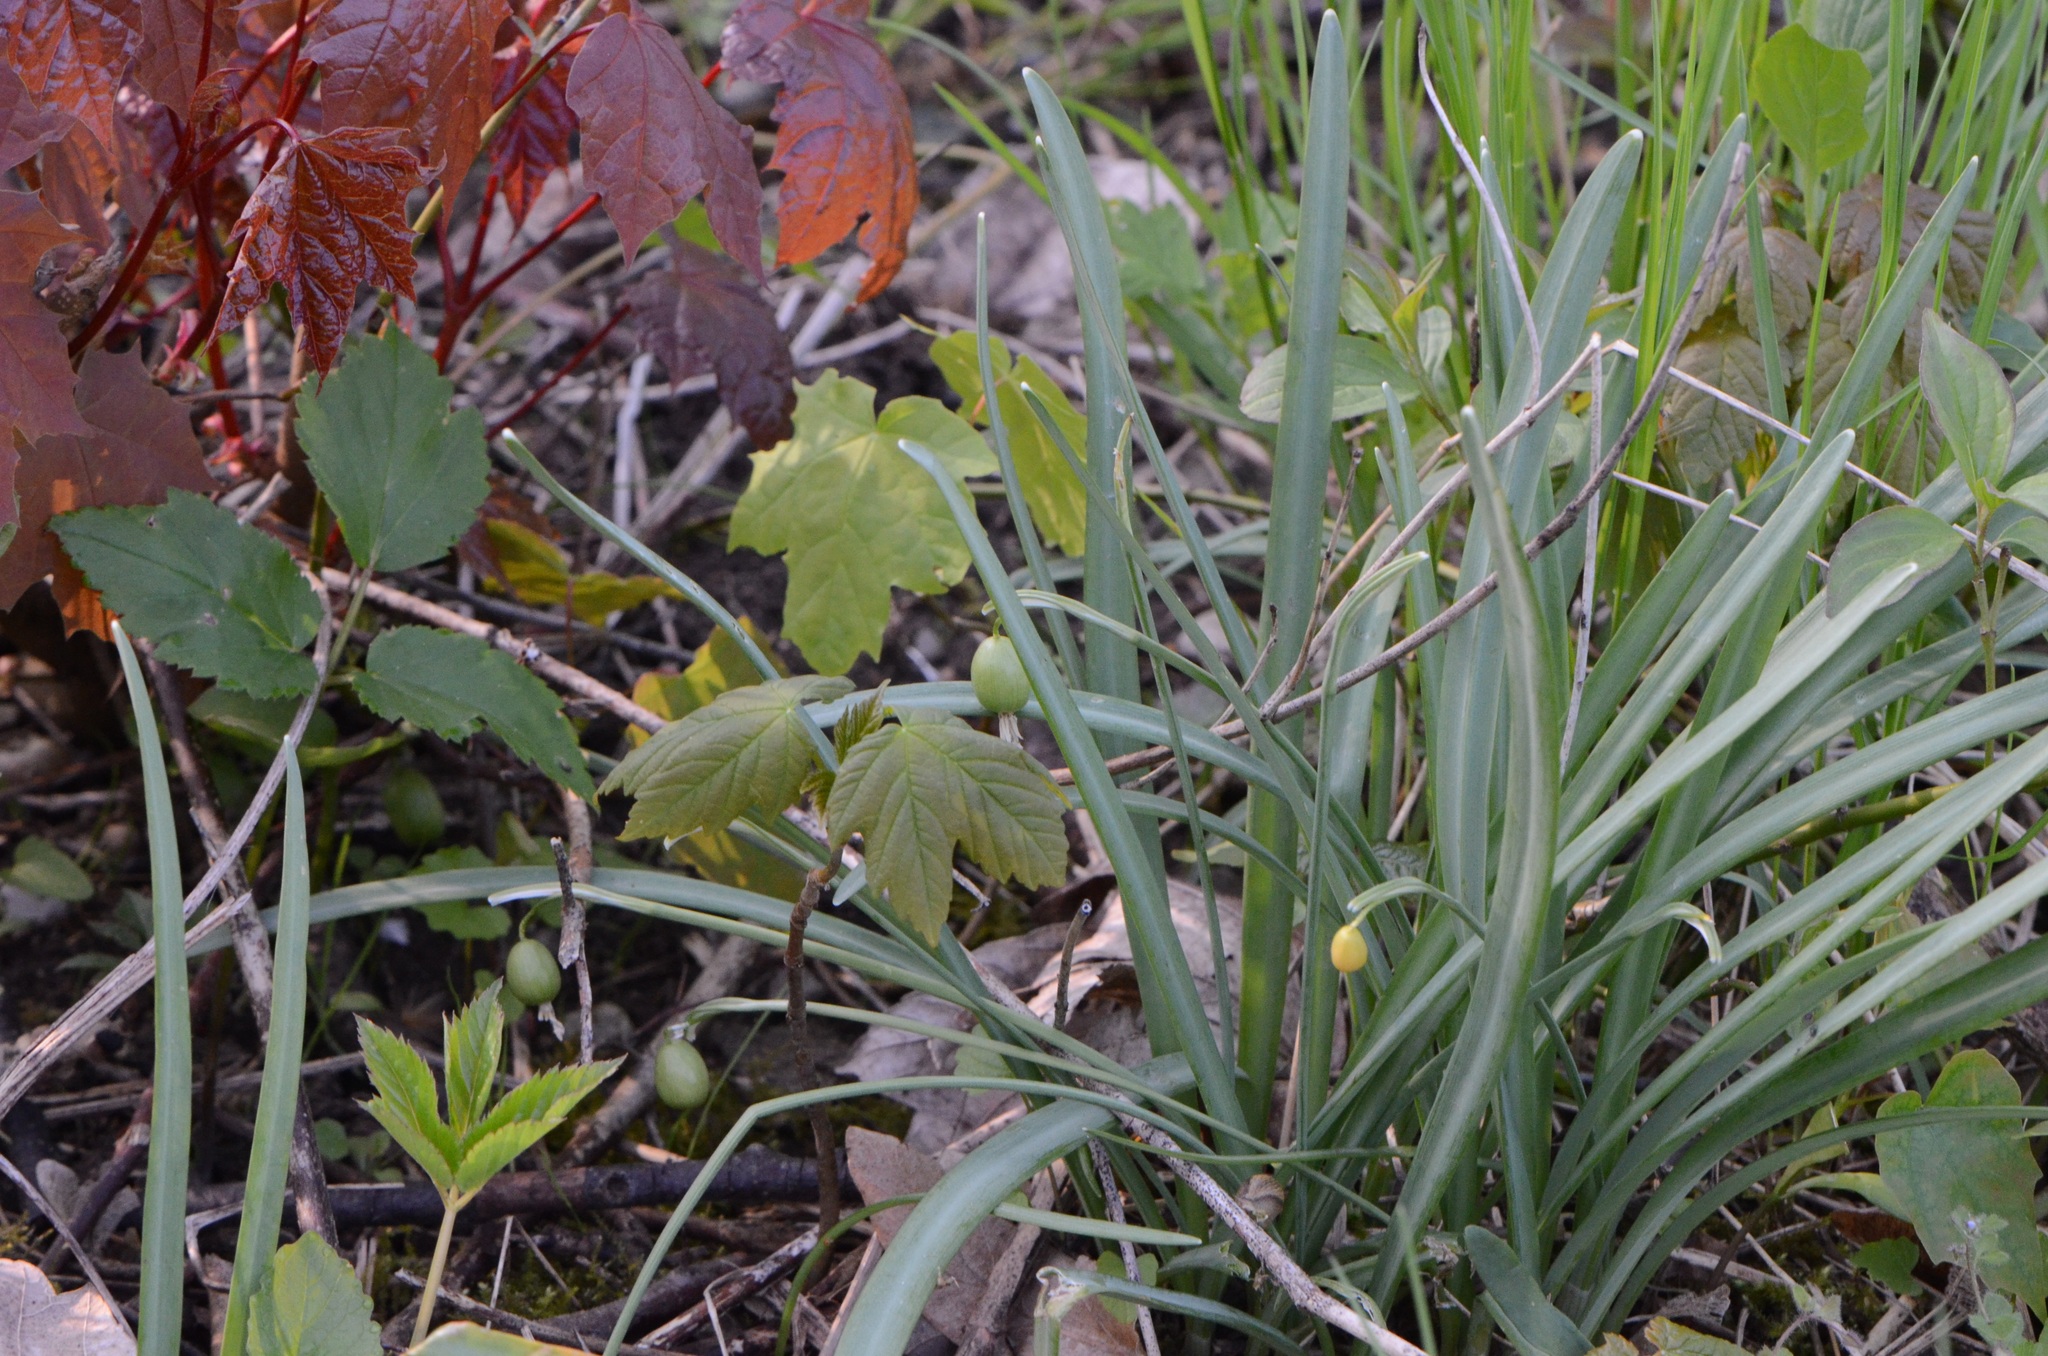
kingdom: Plantae
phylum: Tracheophyta
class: Liliopsida
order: Asparagales
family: Amaryllidaceae
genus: Galanthus
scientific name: Galanthus nivalis
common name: Snowdrop
